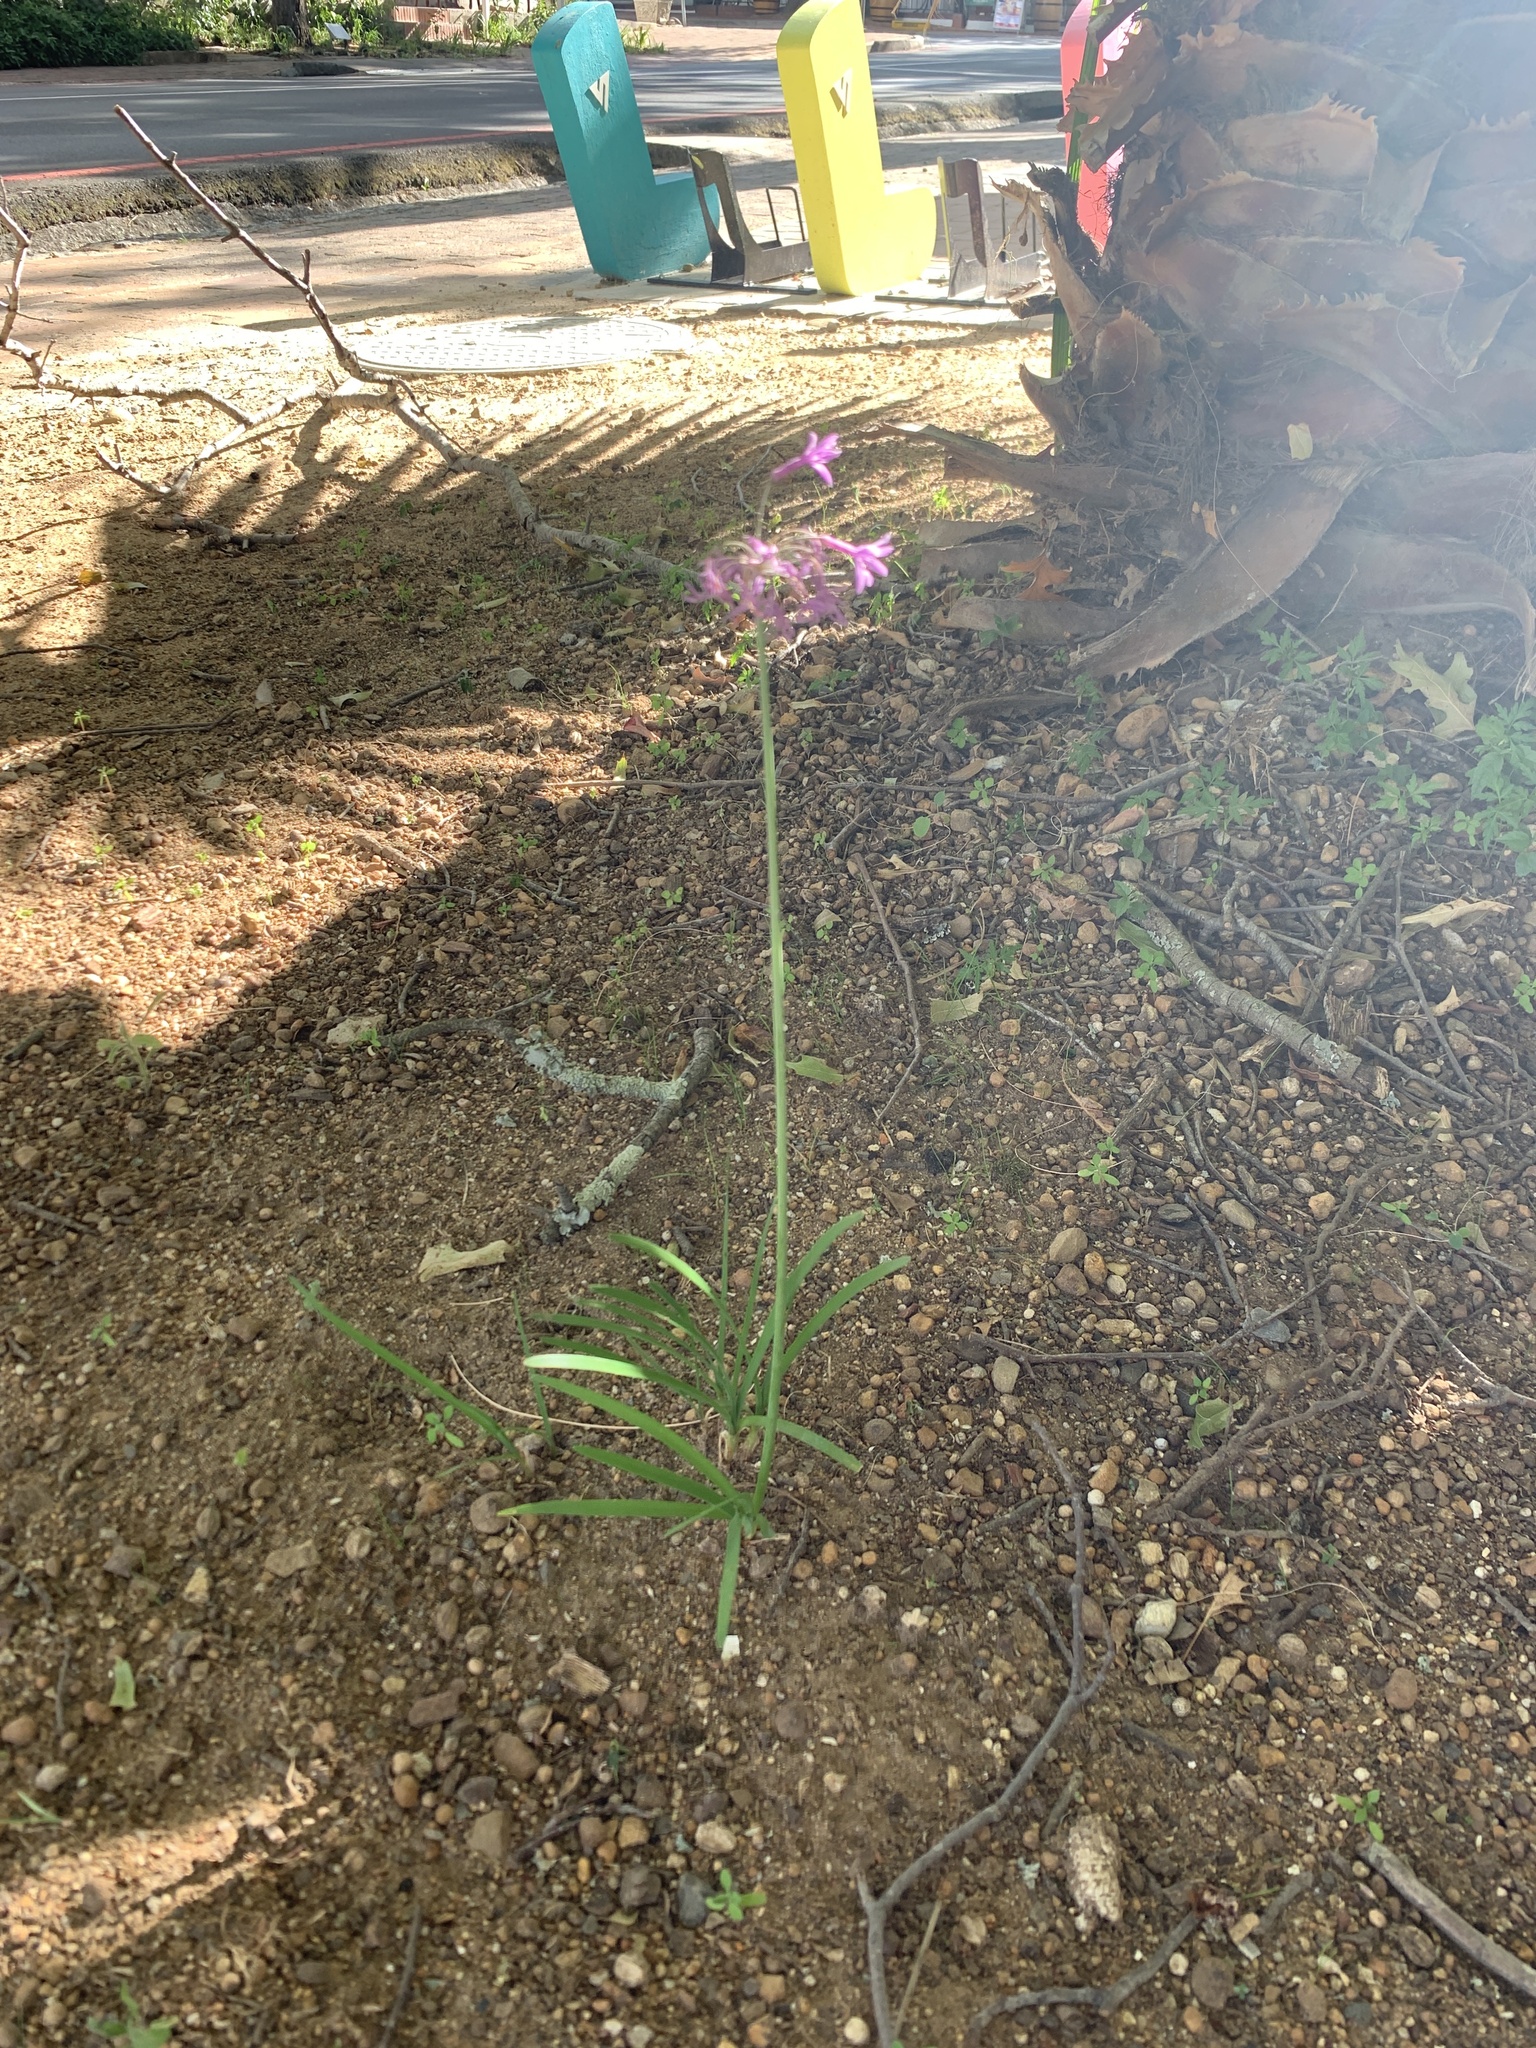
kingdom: Plantae
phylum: Tracheophyta
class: Liliopsida
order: Asparagales
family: Amaryllidaceae
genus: Tulbaghia
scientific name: Tulbaghia violacea
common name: Society garlic
